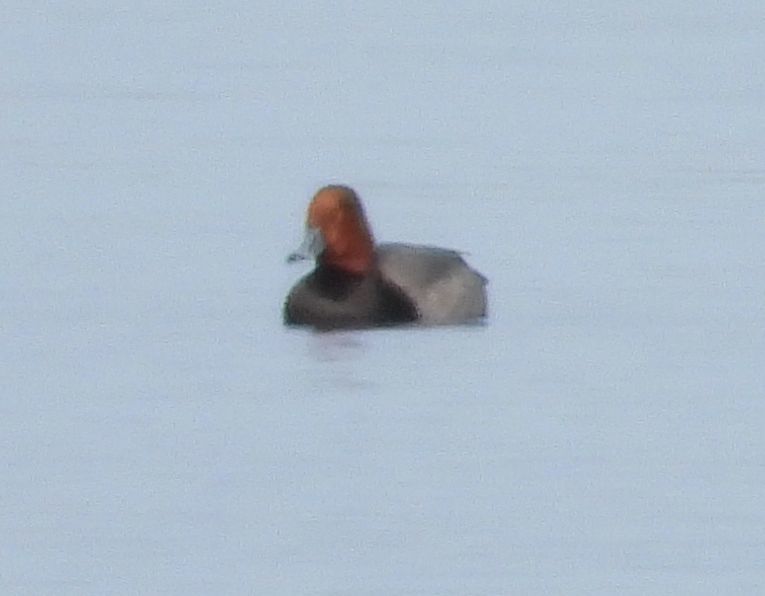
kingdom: Animalia
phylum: Chordata
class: Aves
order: Anseriformes
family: Anatidae
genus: Aythya
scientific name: Aythya americana
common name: Redhead
